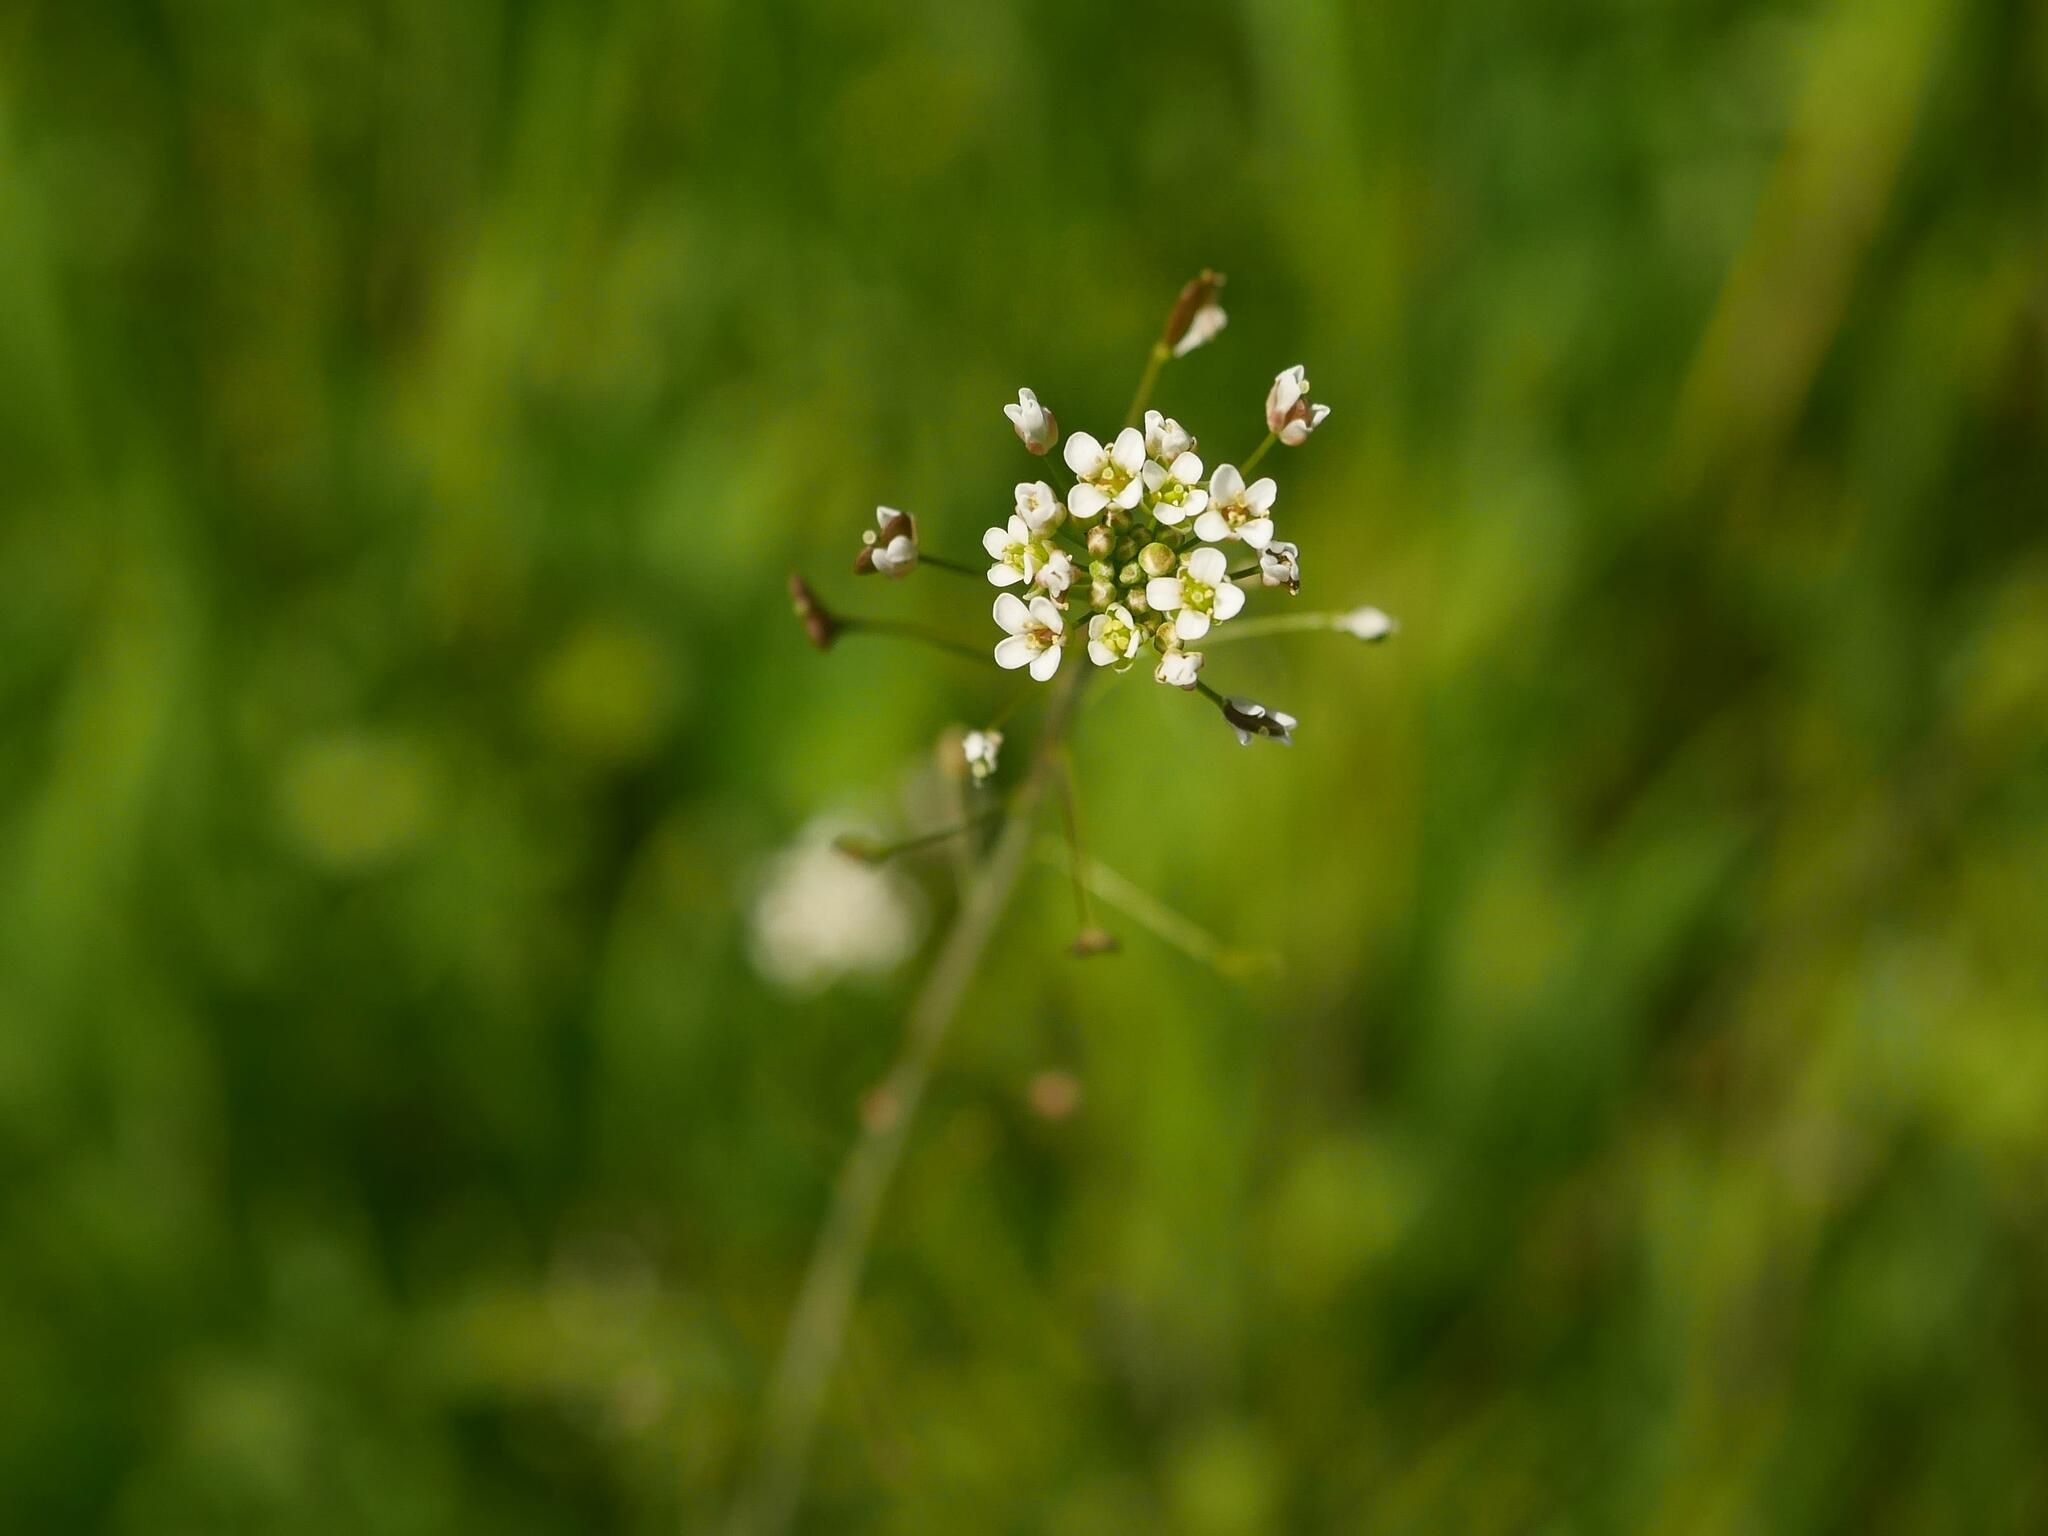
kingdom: Plantae
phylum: Tracheophyta
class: Magnoliopsida
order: Brassicales
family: Brassicaceae
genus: Capsella
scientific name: Capsella bursa-pastoris
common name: Shepherd's purse
